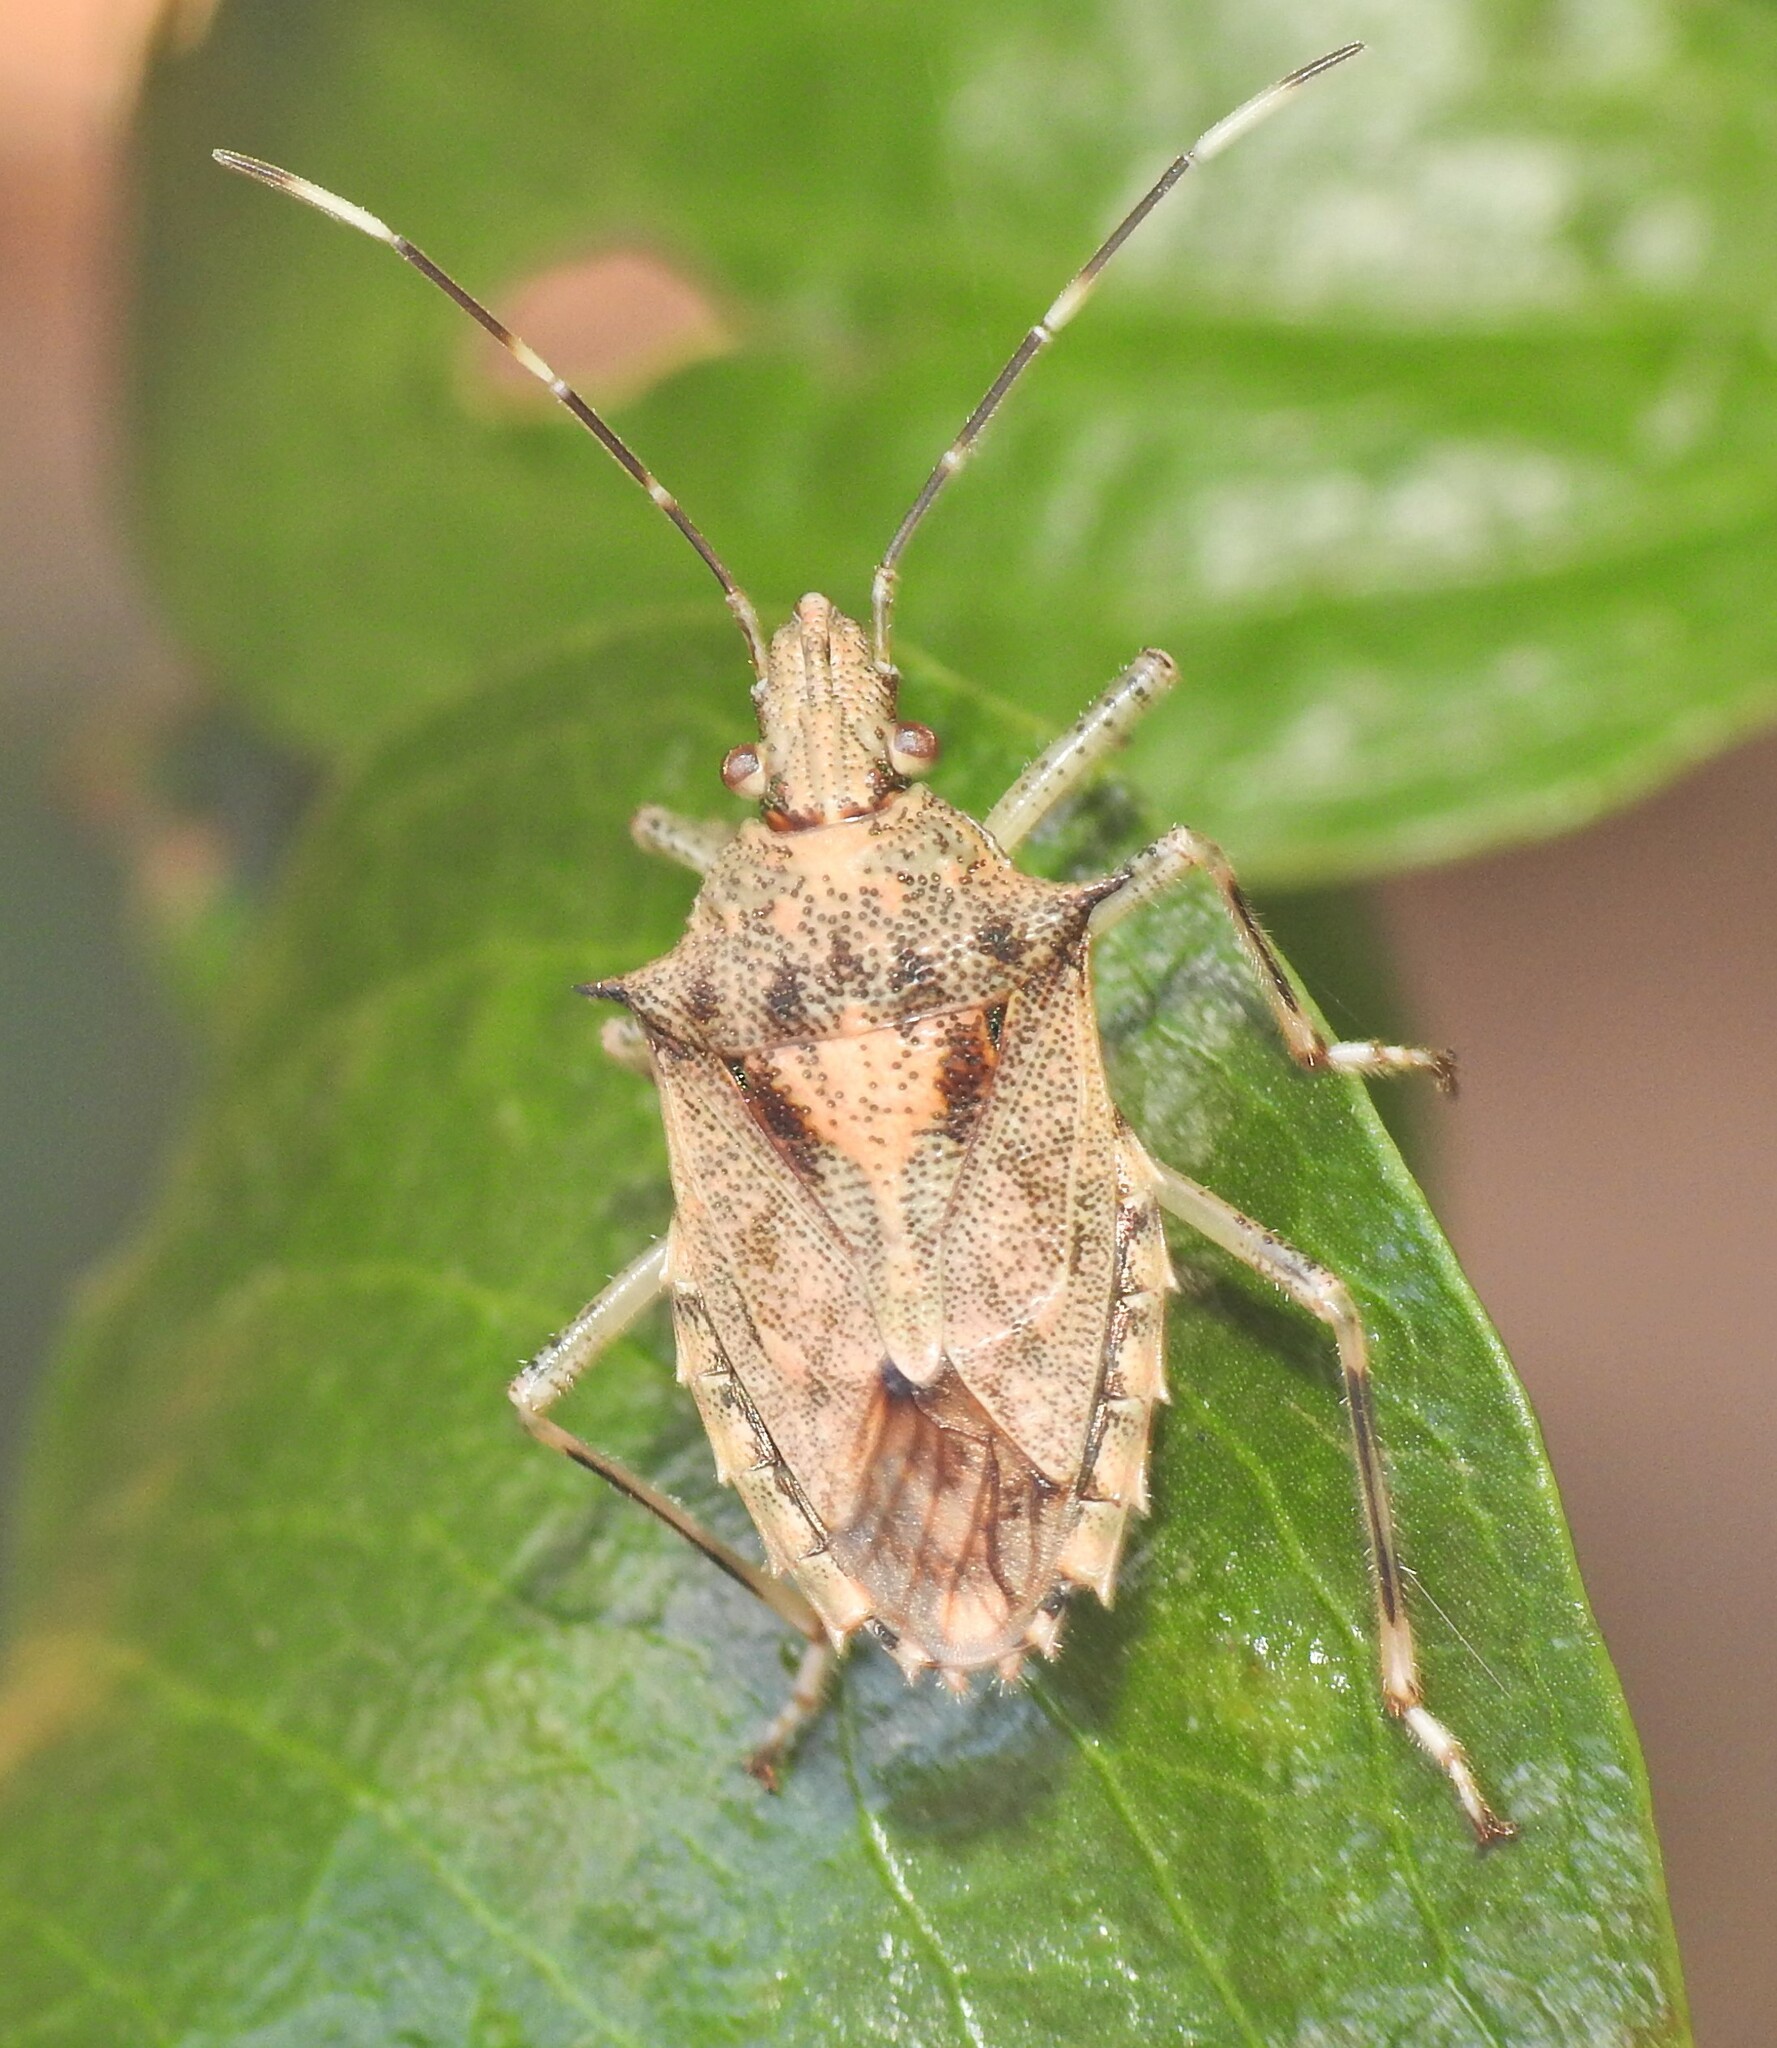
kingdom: Animalia
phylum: Arthropoda
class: Insecta
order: Hemiptera
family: Pentatomidae
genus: Bromocoris
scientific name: Bromocoris
